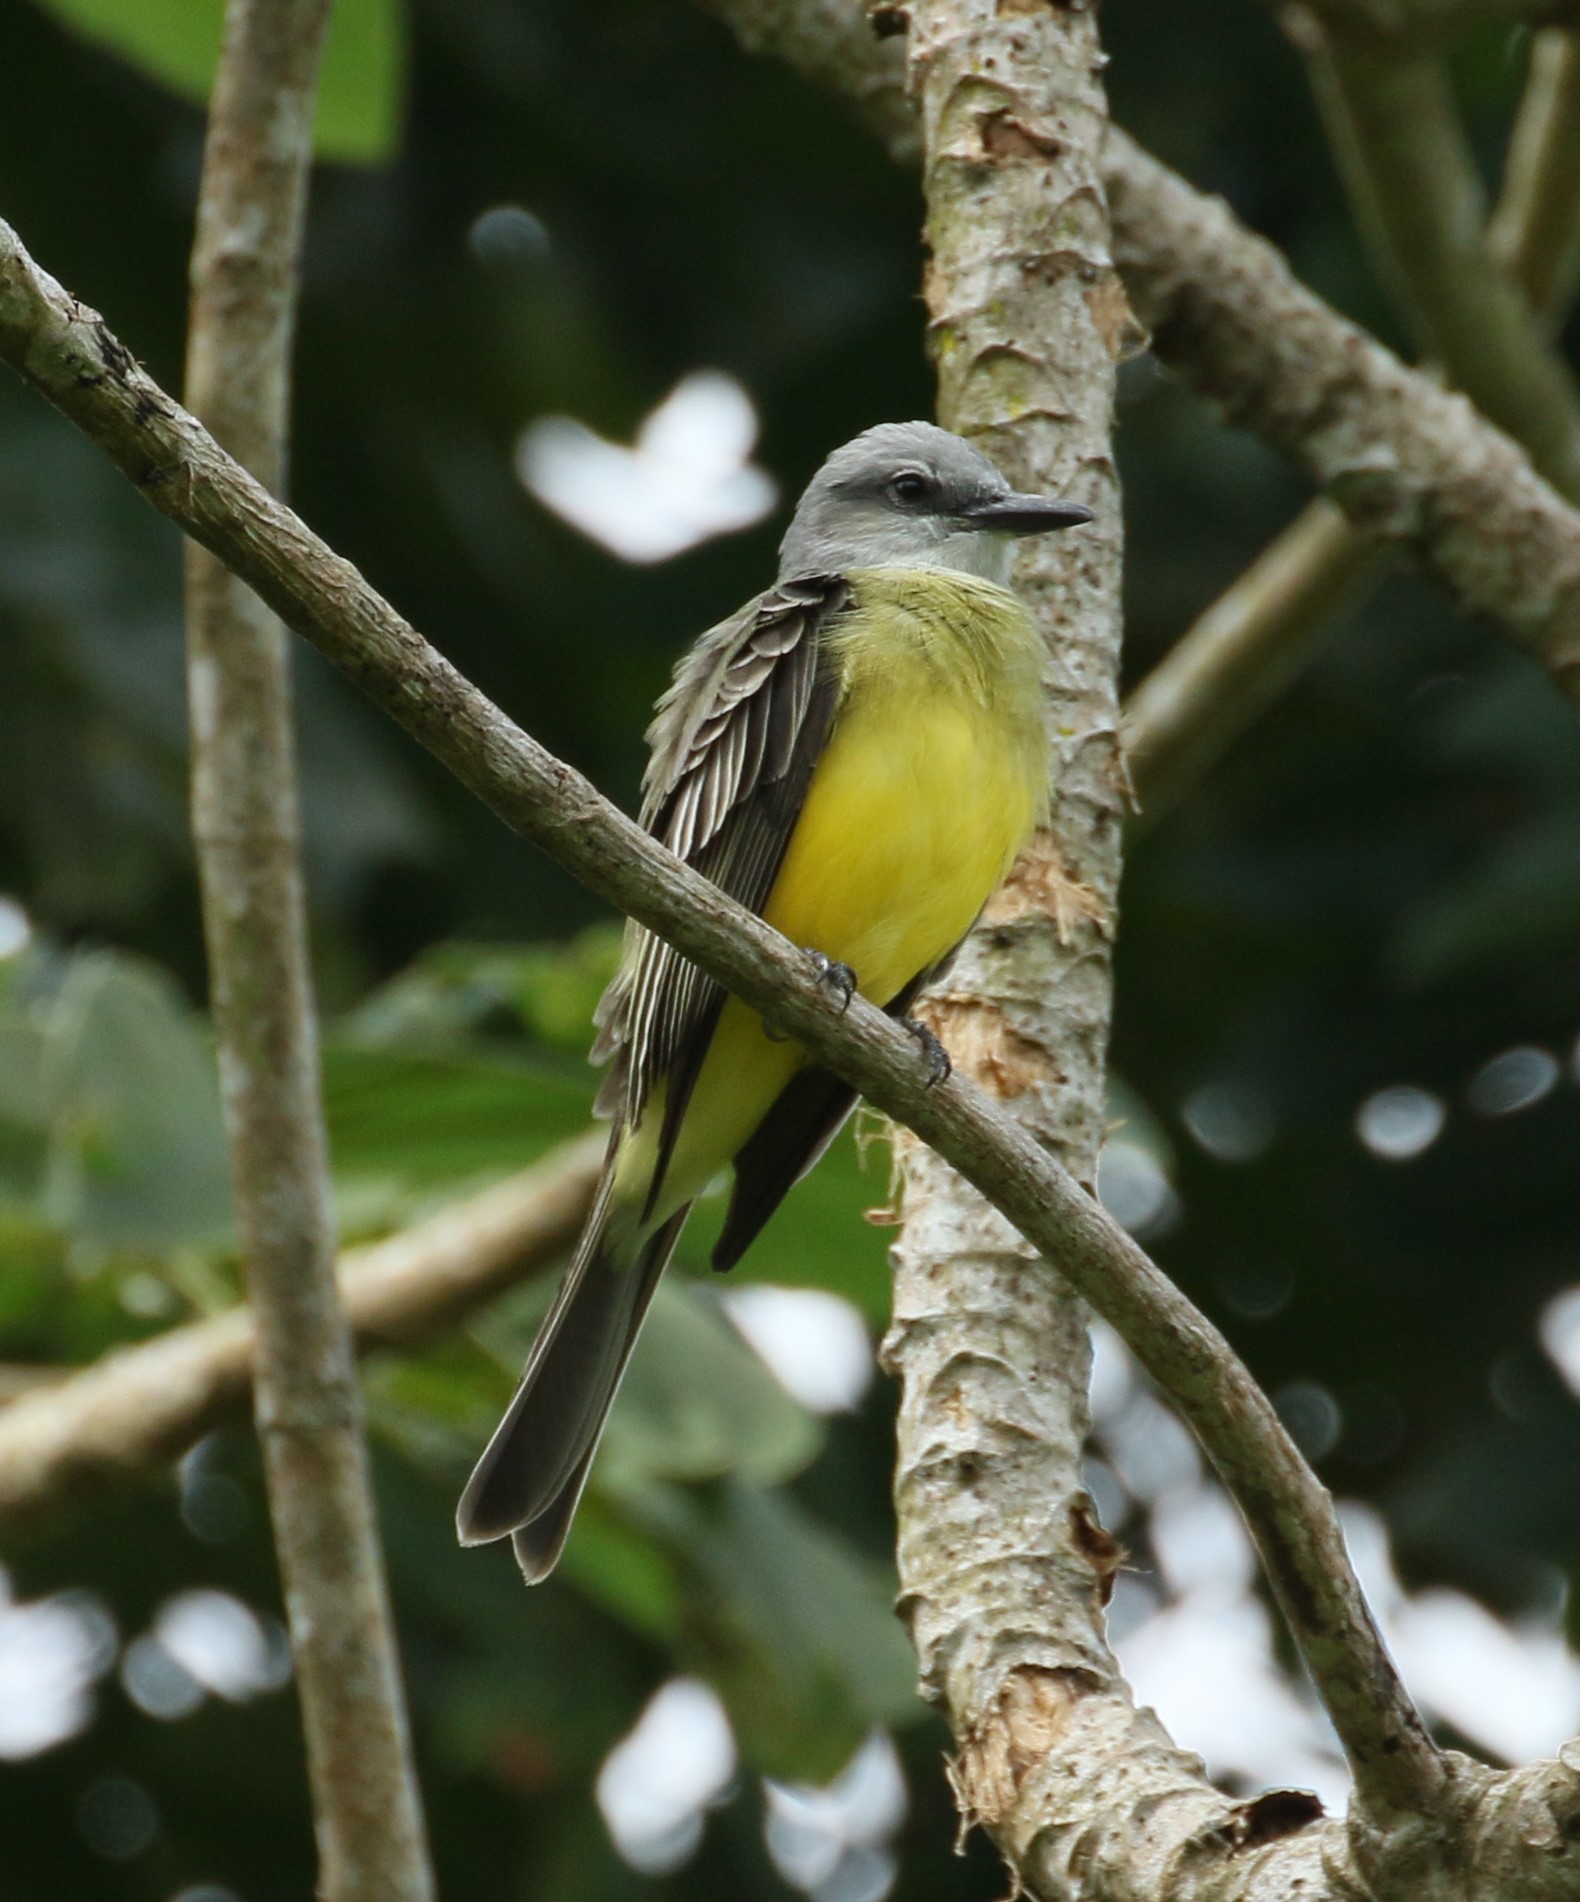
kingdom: Animalia
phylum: Chordata
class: Aves
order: Passeriformes
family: Tyrannidae
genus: Tyrannus
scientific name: Tyrannus melancholicus
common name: Tropical kingbird
